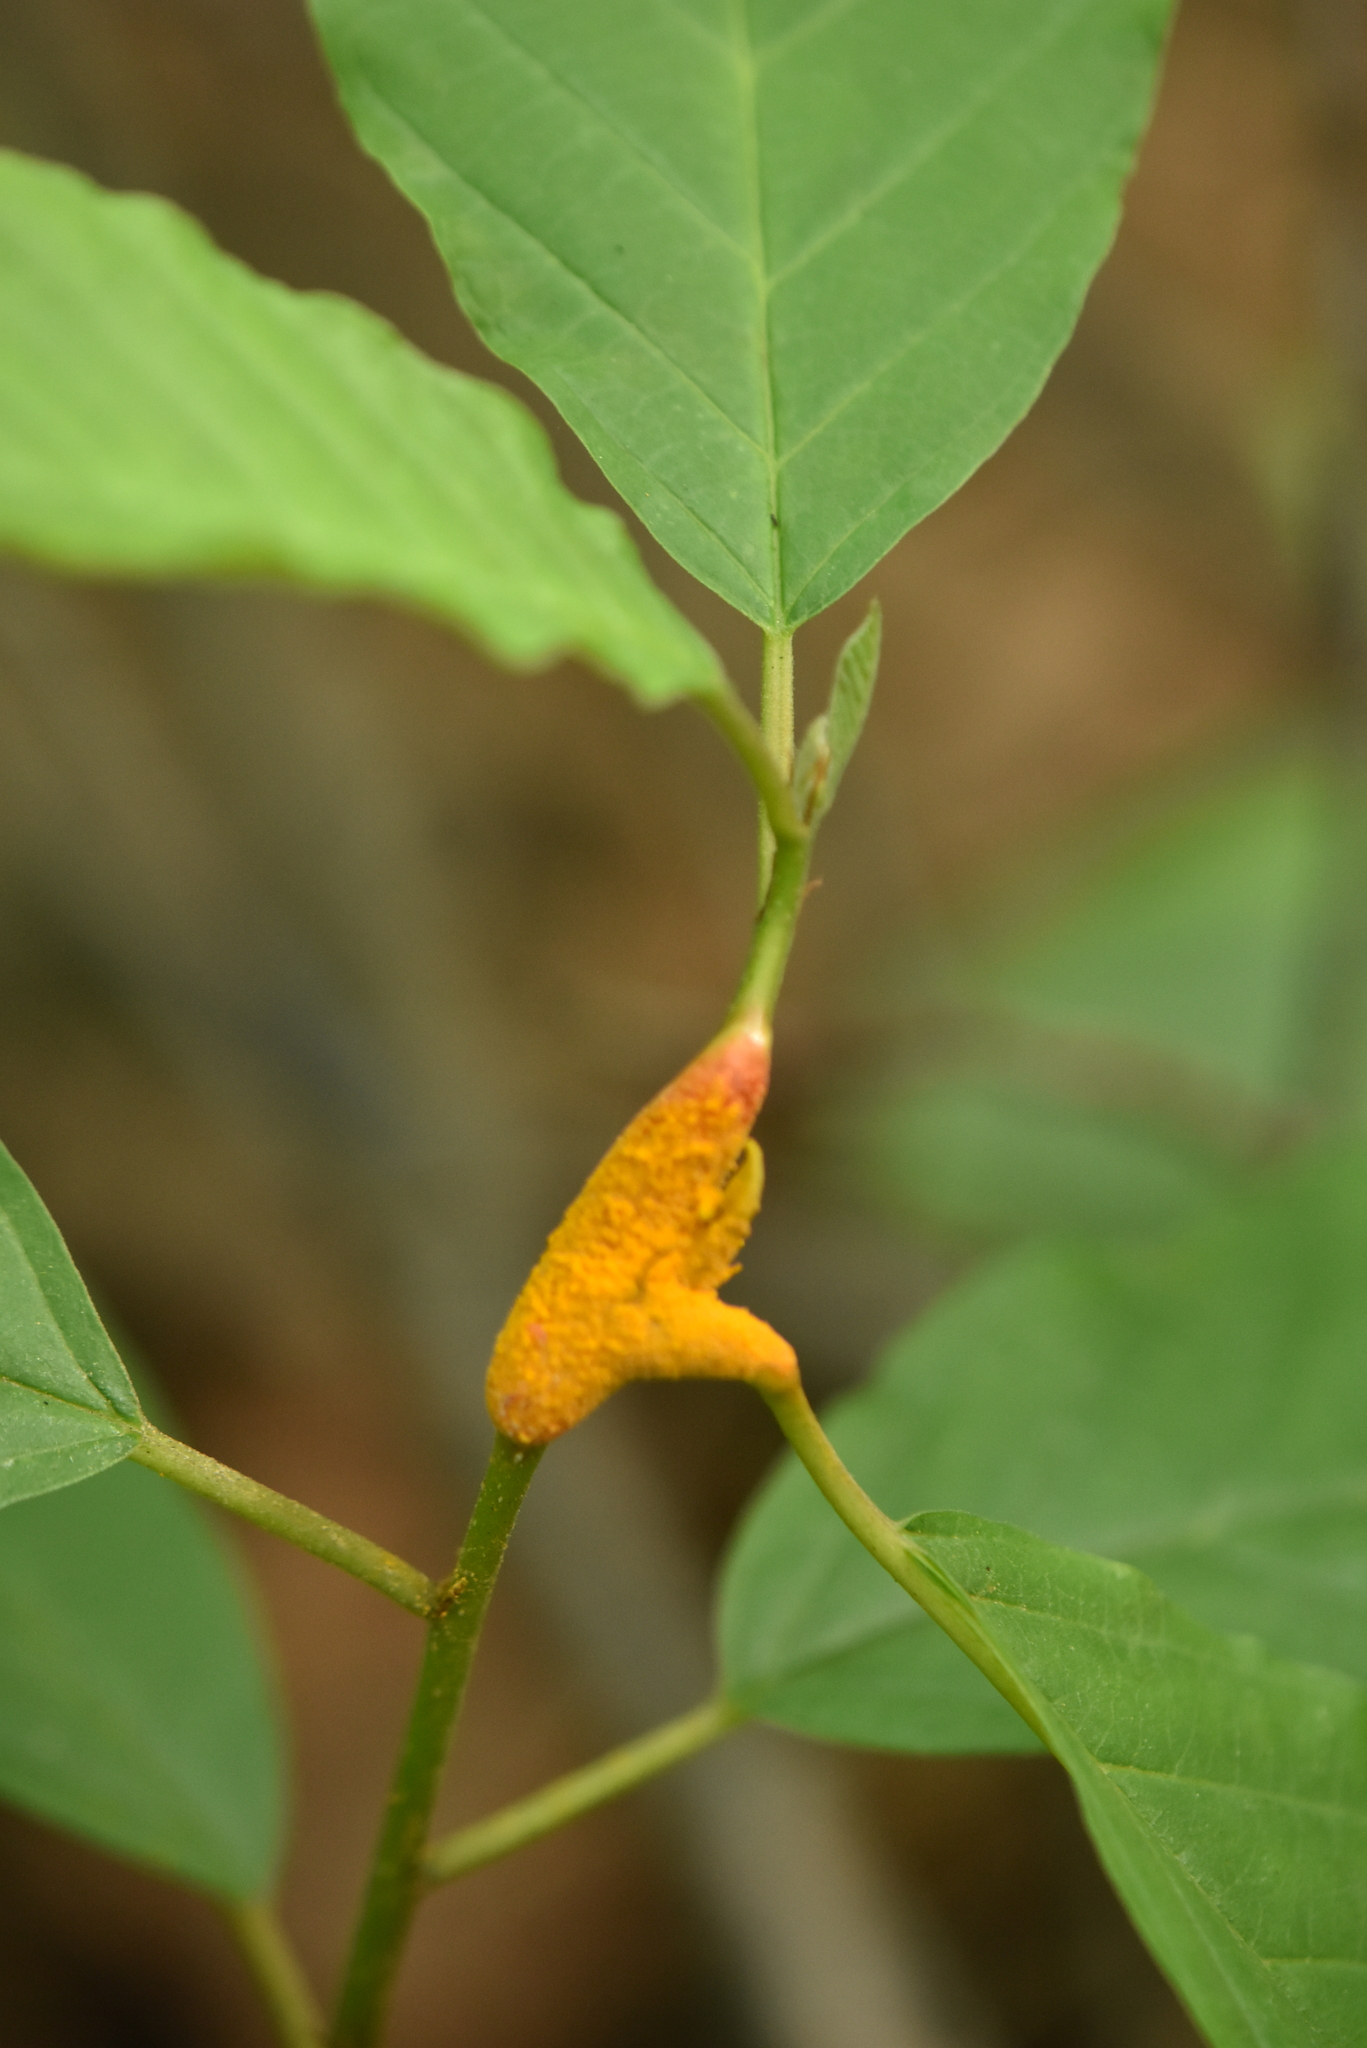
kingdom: Fungi
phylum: Basidiomycota
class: Pucciniomycetes
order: Pucciniales
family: Pucciniaceae
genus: Puccinia
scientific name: Puccinia coronata
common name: Crown rust
